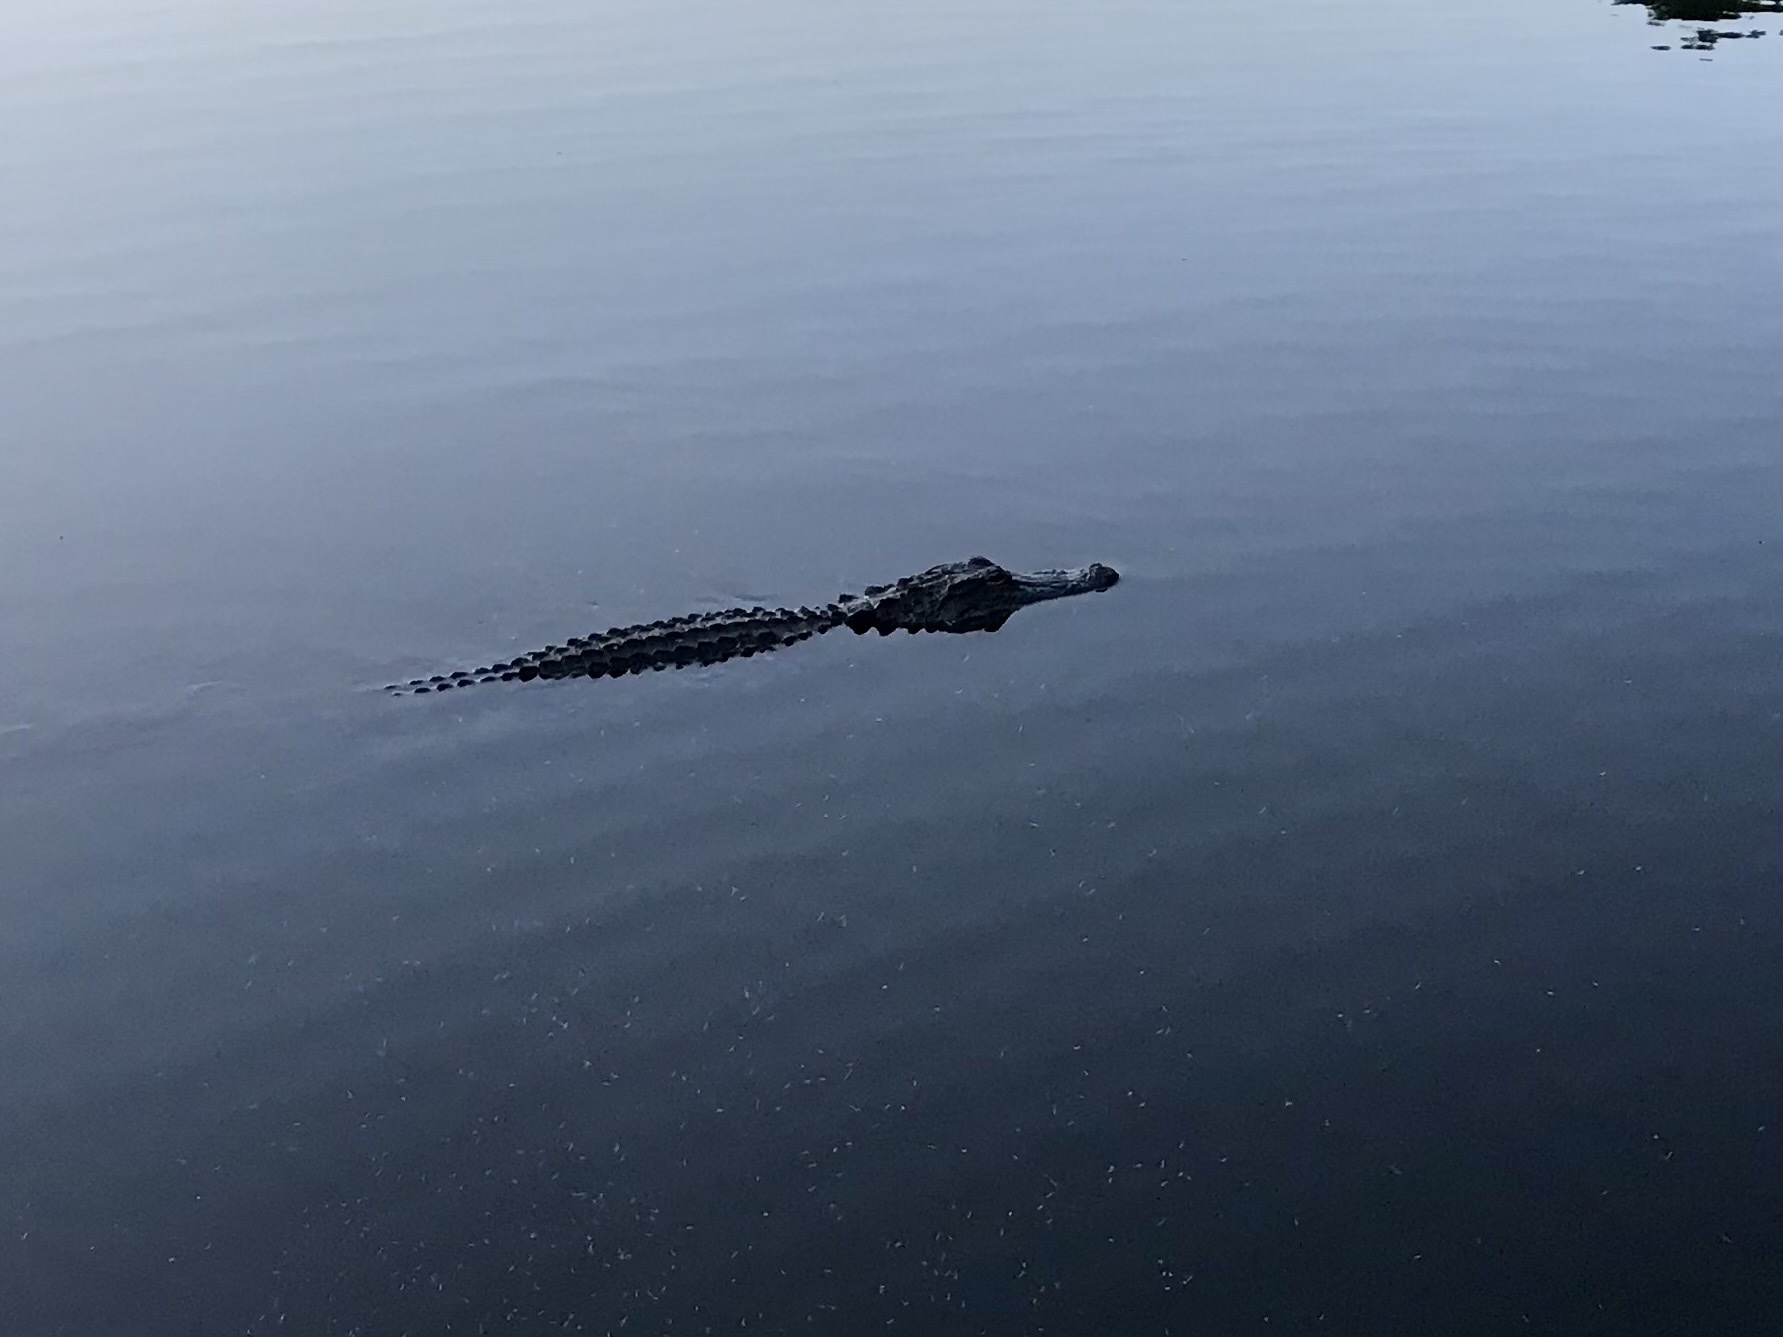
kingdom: Animalia
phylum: Chordata
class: Crocodylia
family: Alligatoridae
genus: Alligator
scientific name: Alligator mississippiensis
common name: American alligator
